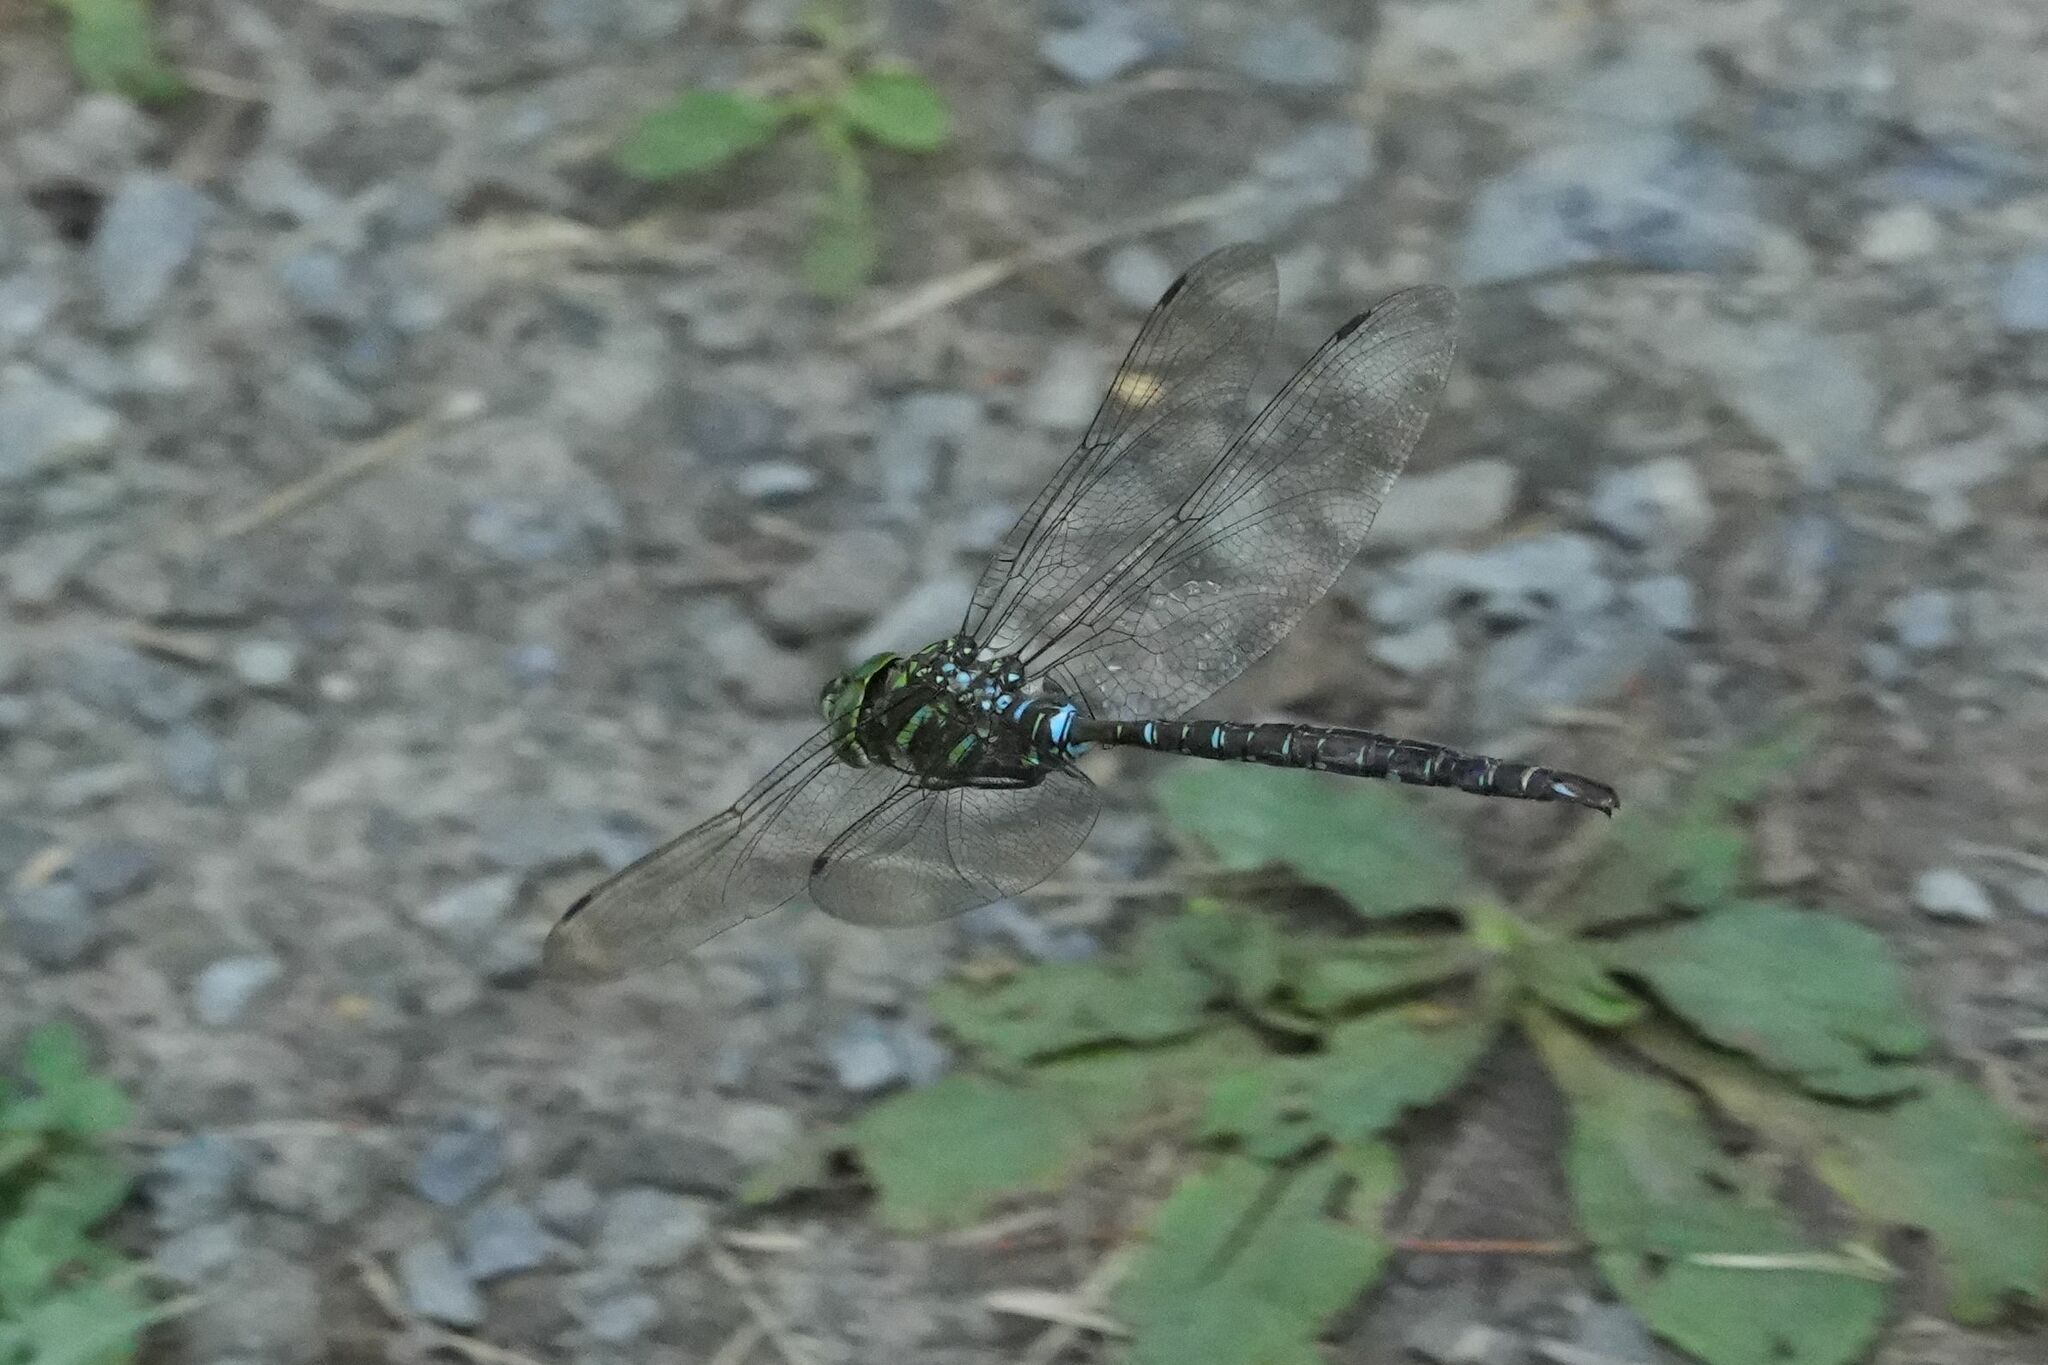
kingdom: Animalia
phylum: Arthropoda
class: Insecta
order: Odonata
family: Aeshnidae
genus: Aeshna
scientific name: Aeshna umbrosa
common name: Shadow darner
